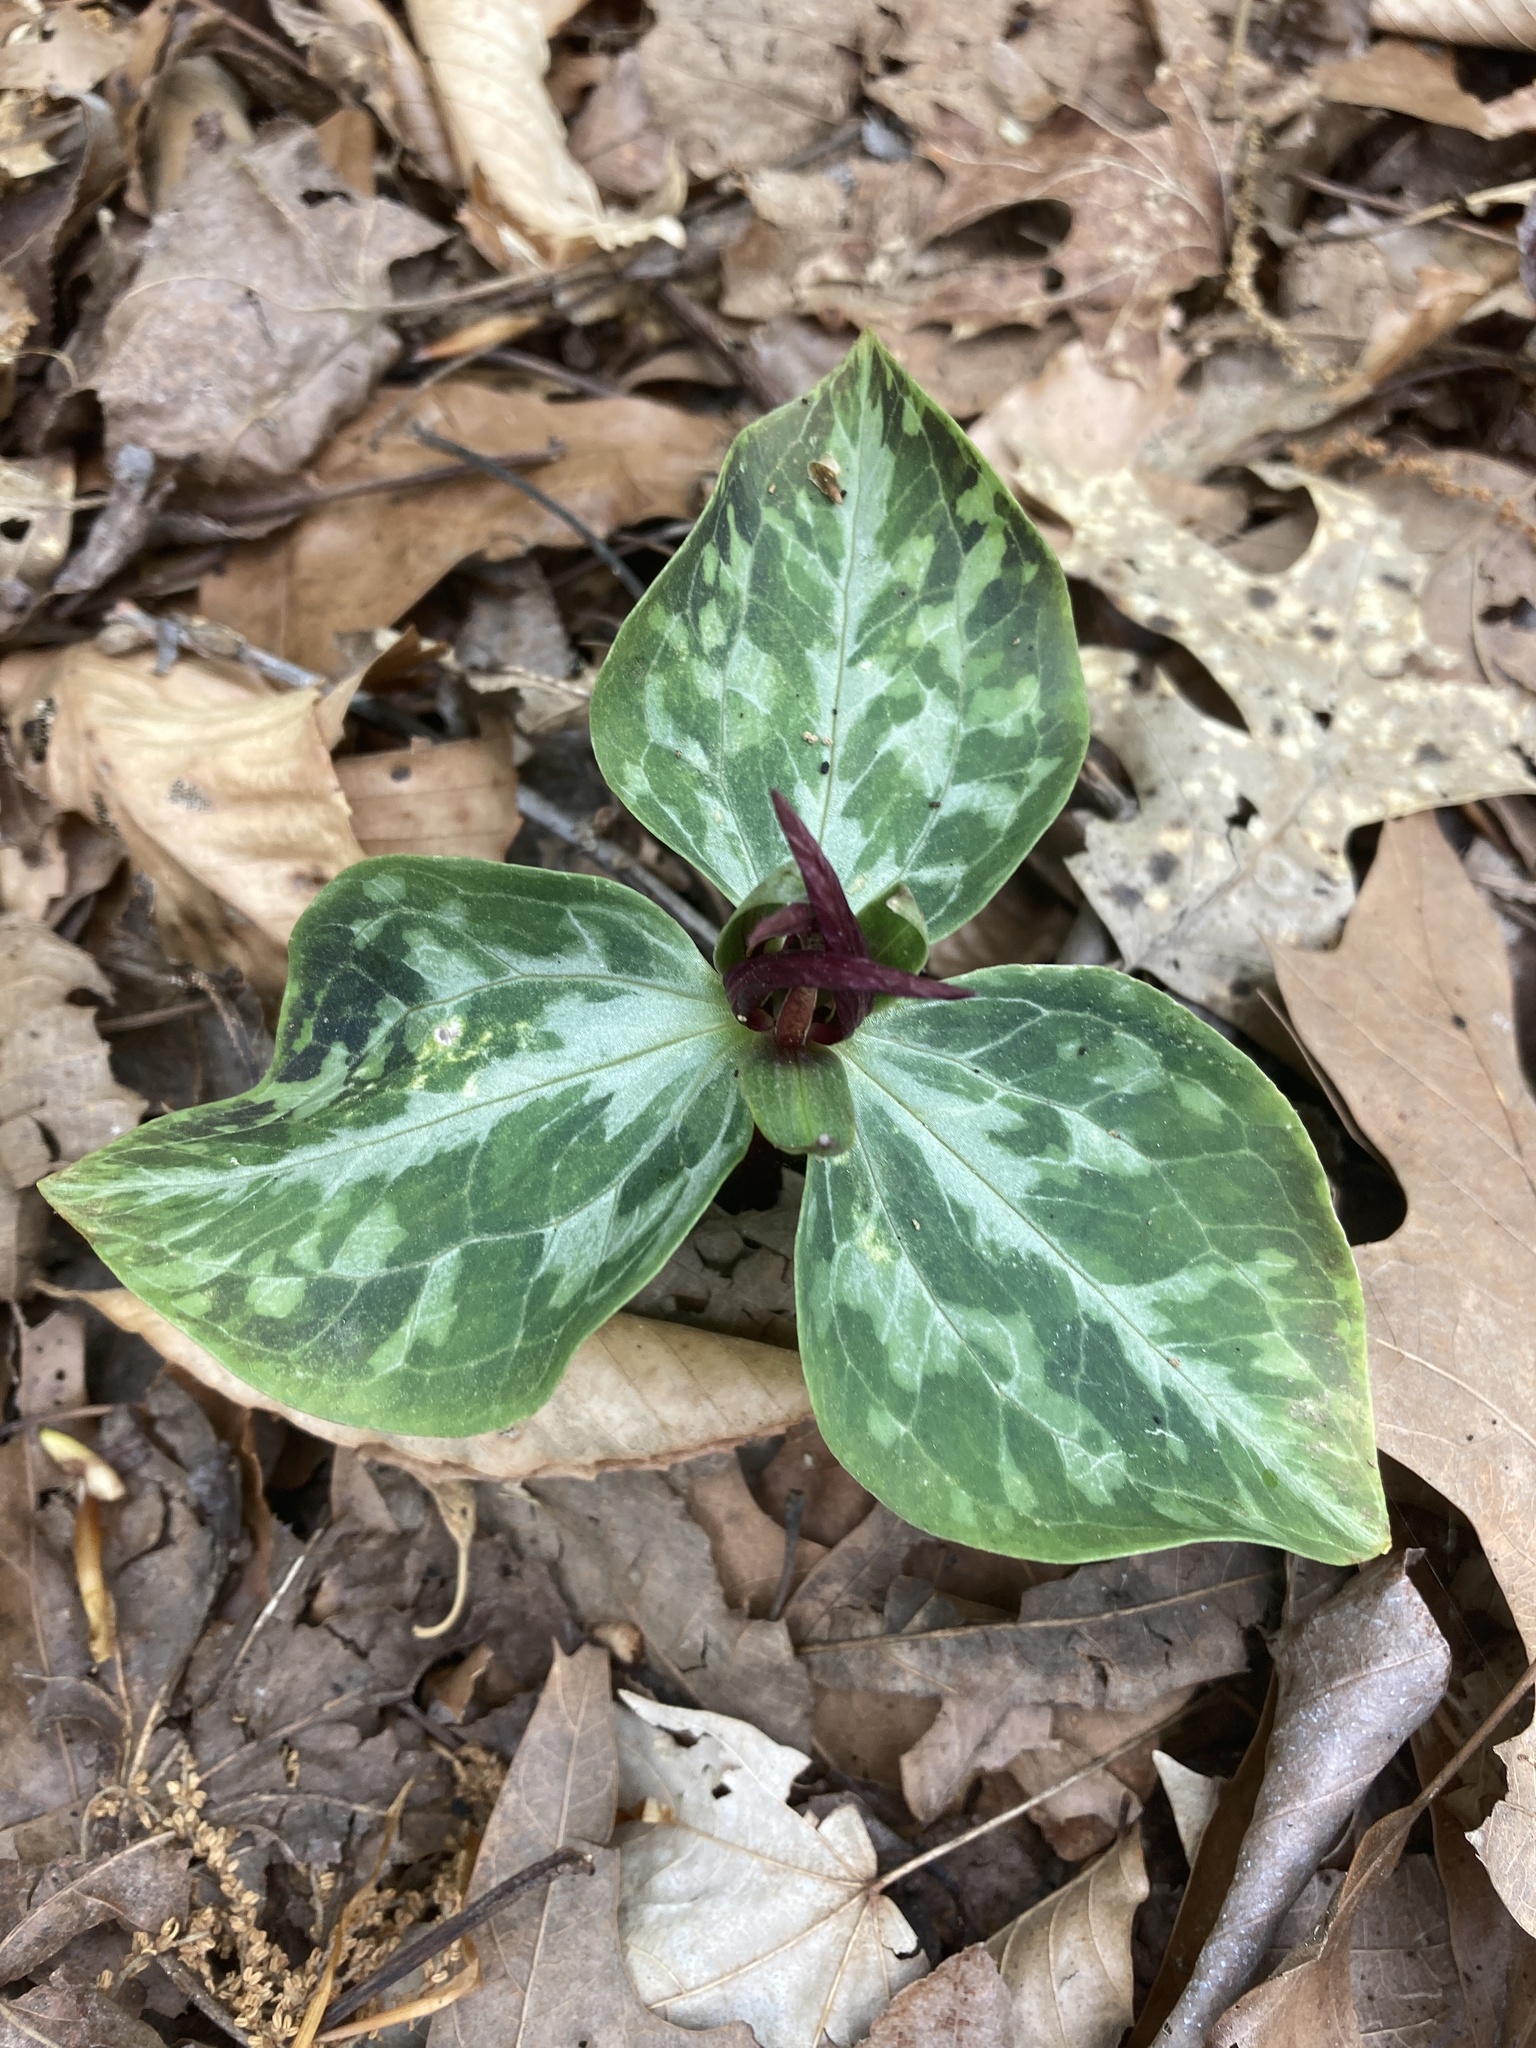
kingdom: Plantae
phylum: Tracheophyta
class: Liliopsida
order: Liliales
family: Melanthiaceae
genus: Trillium
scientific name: Trillium foetidissimum
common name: Mississippi river trillium
